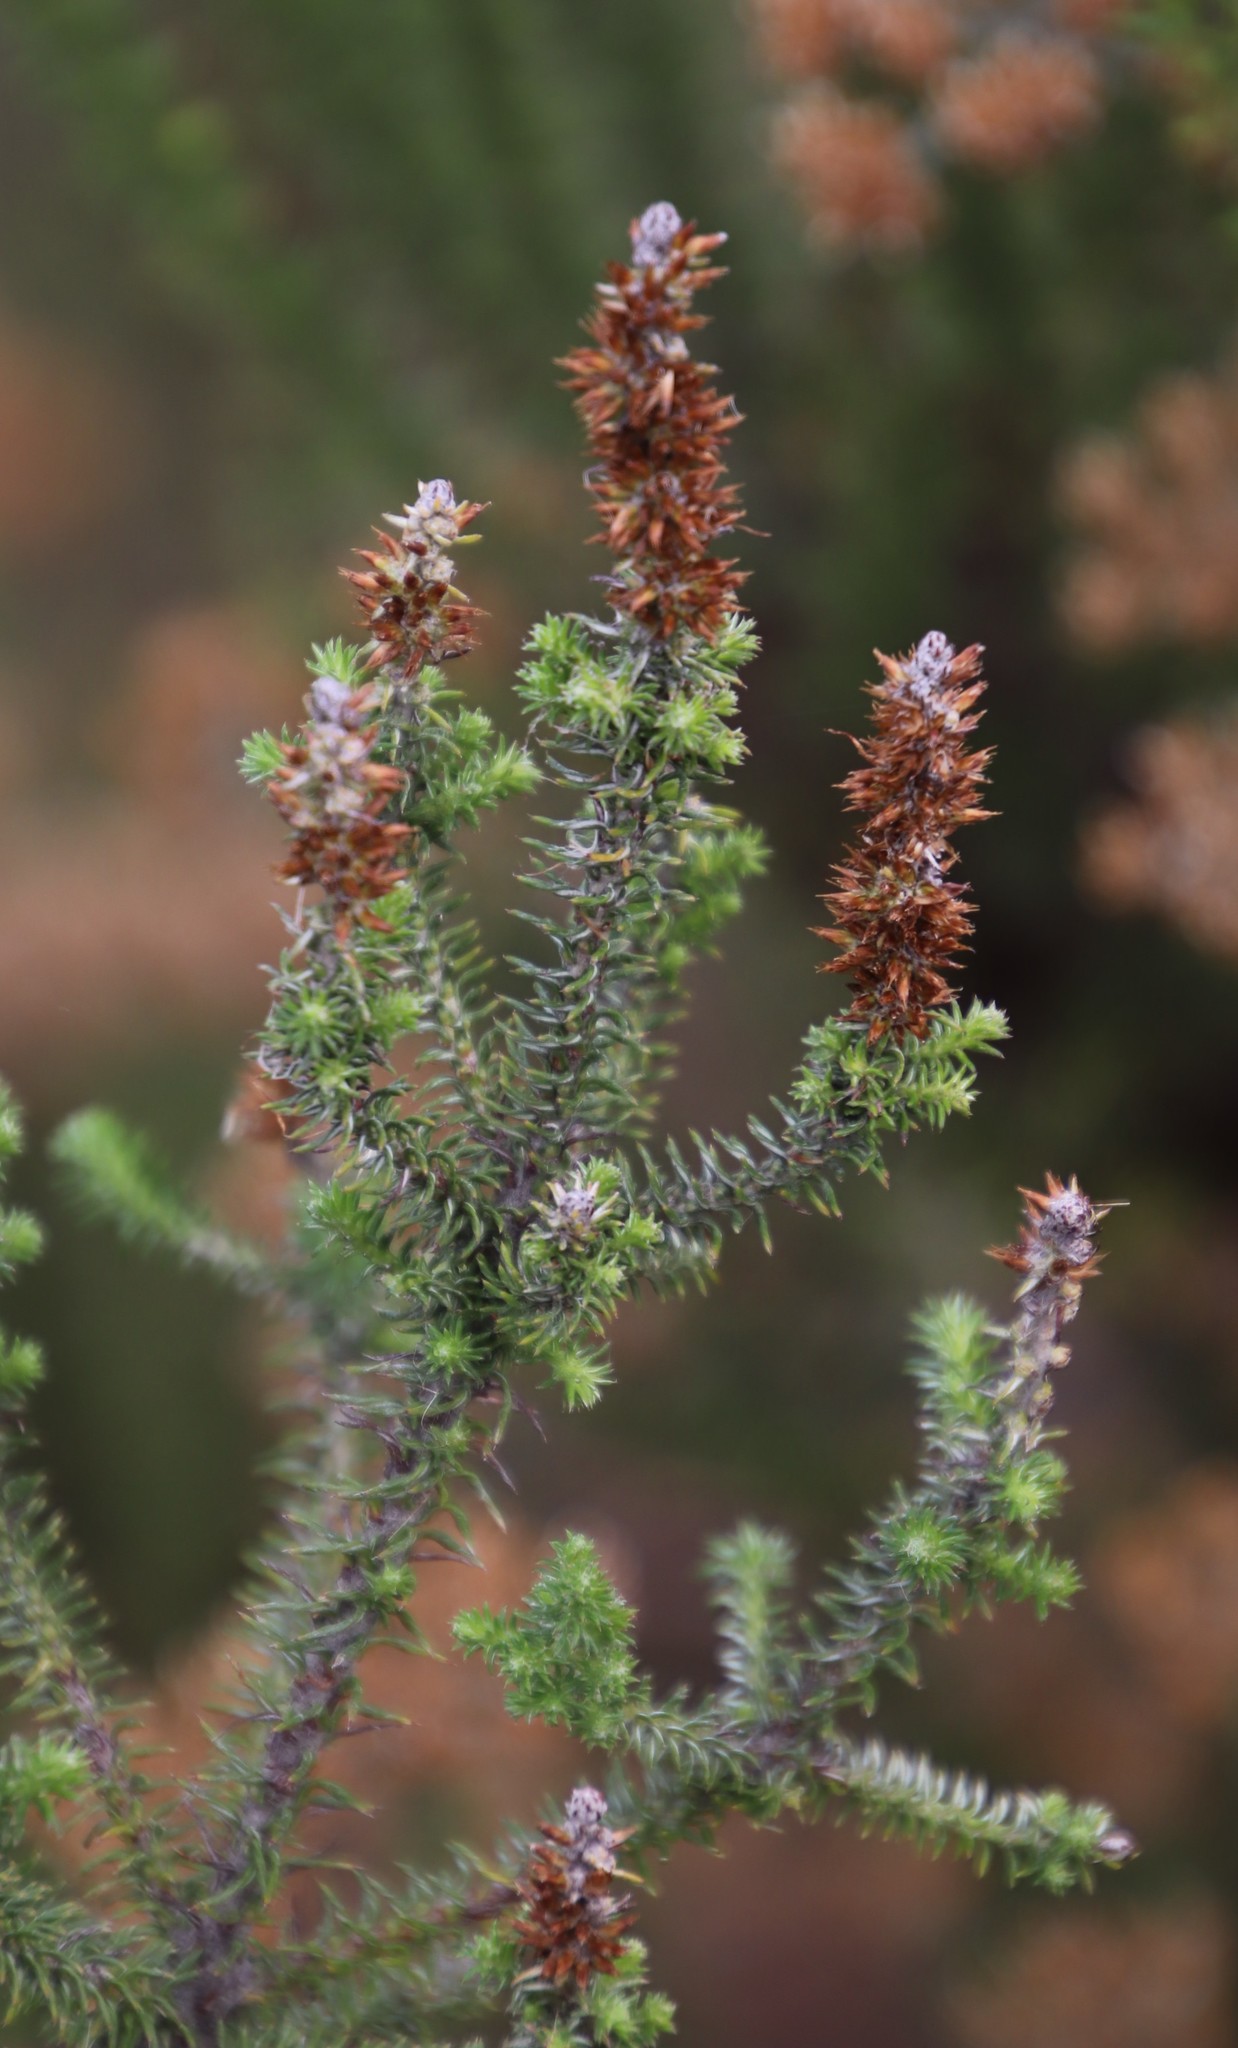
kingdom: Plantae
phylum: Tracheophyta
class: Magnoliopsida
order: Asterales
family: Asteraceae
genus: Seriphium
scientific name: Seriphium cinereum
